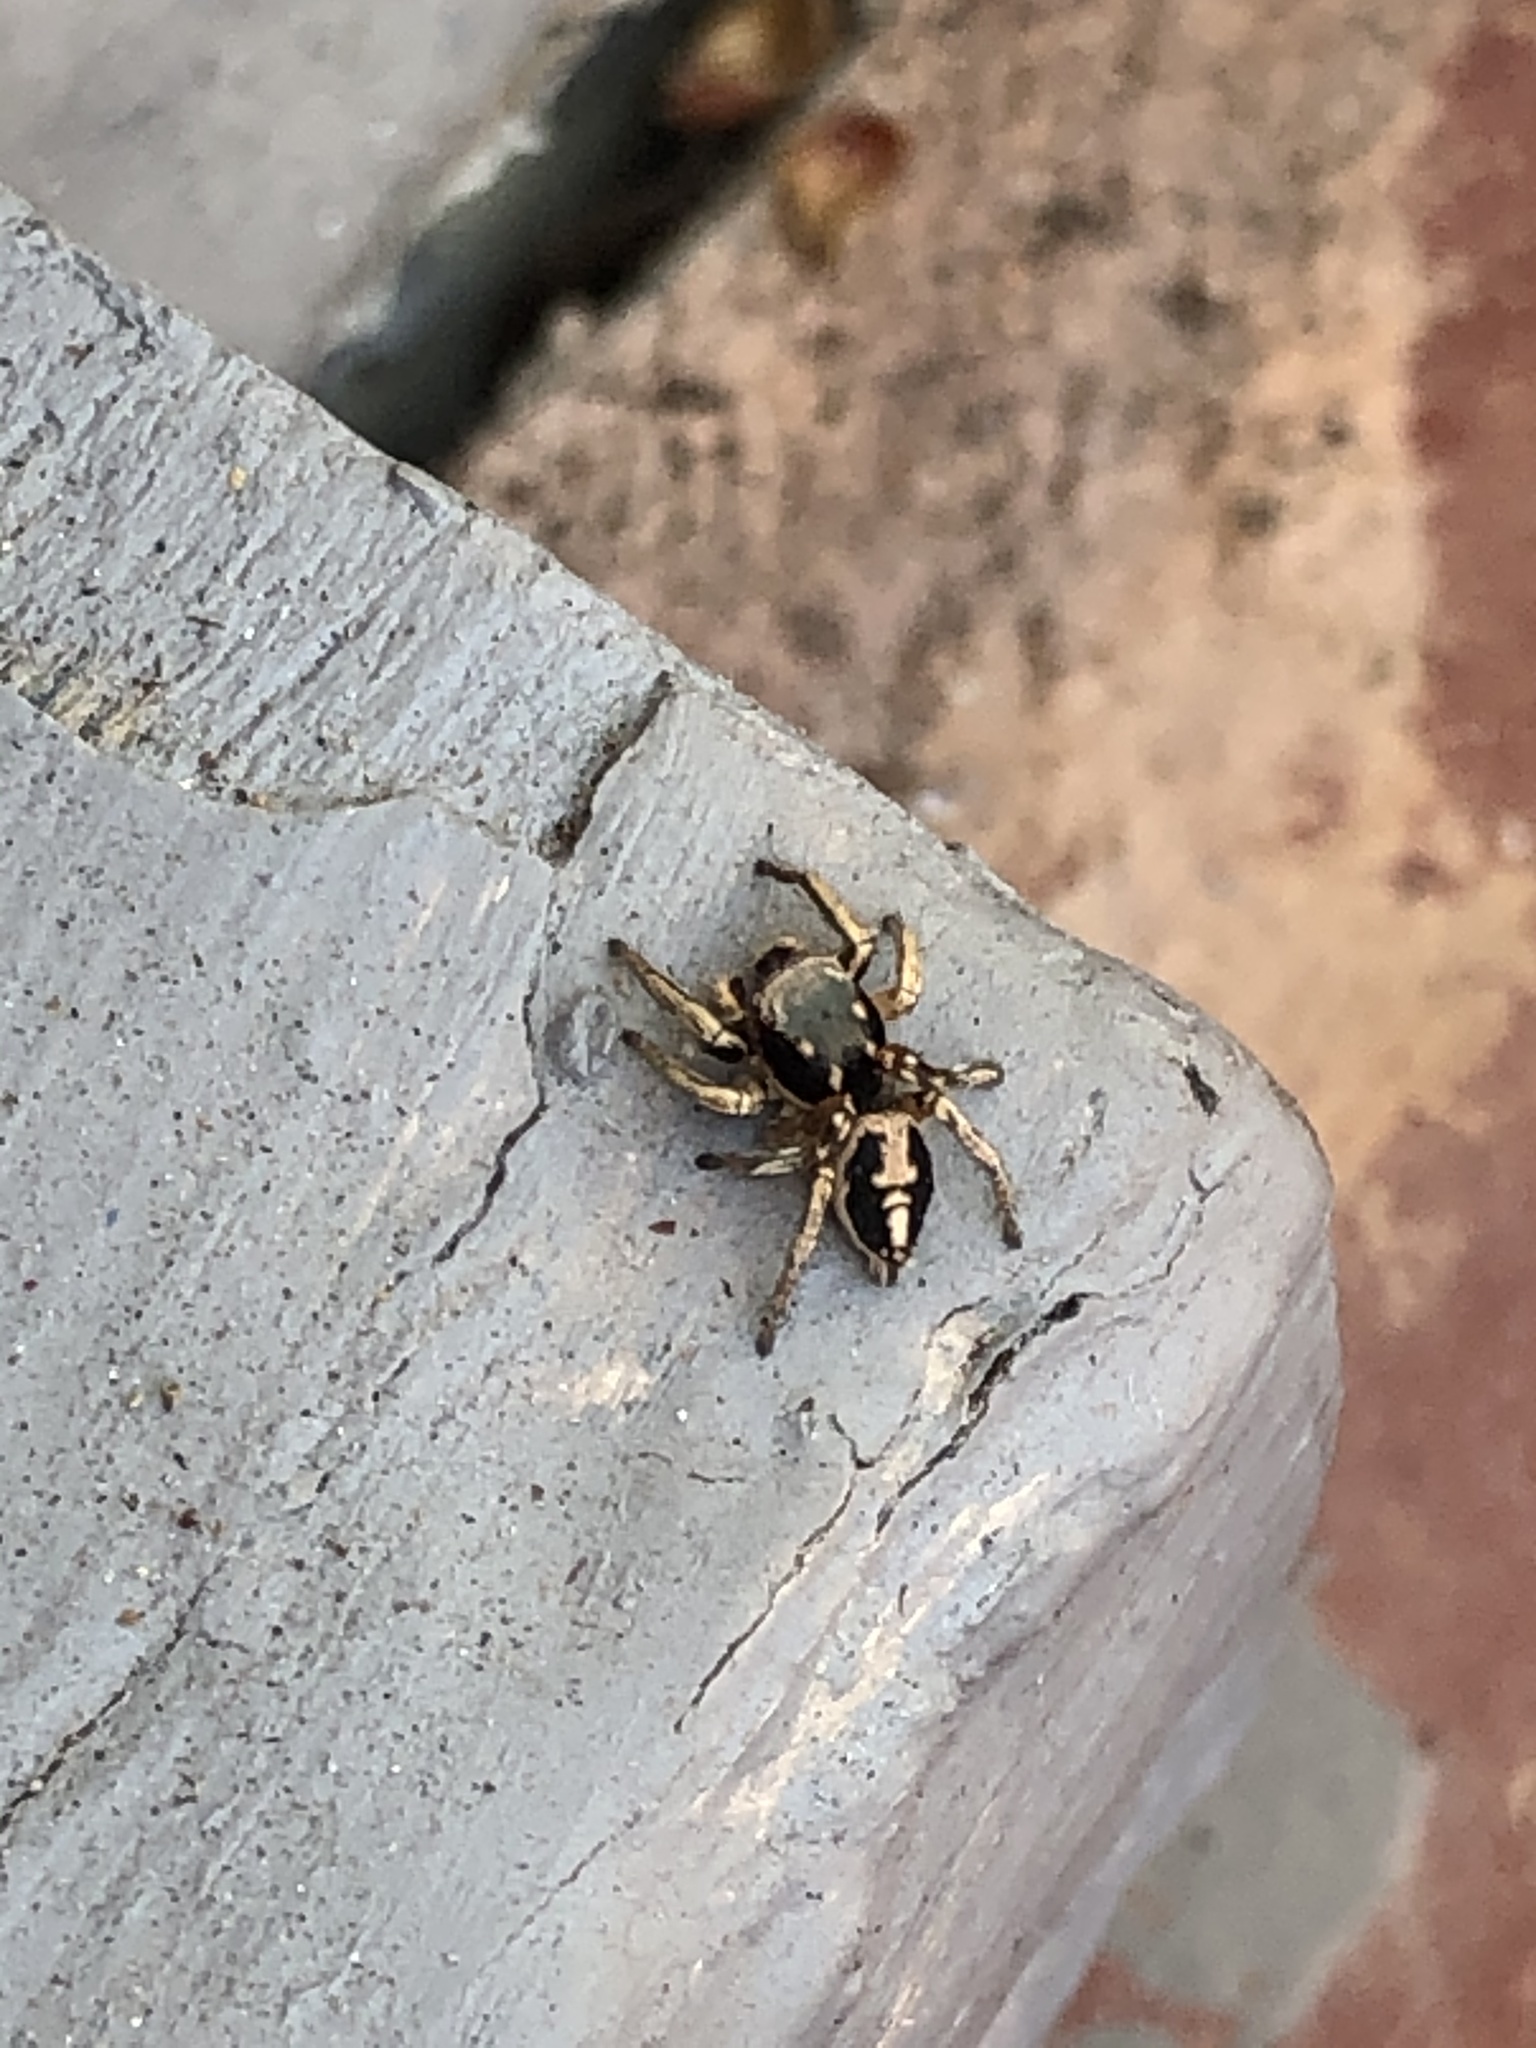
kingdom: Animalia
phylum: Arthropoda
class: Arachnida
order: Araneae
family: Salticidae
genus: Habronattus
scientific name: Habronattus pyrrithrix
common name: Jumping spider
